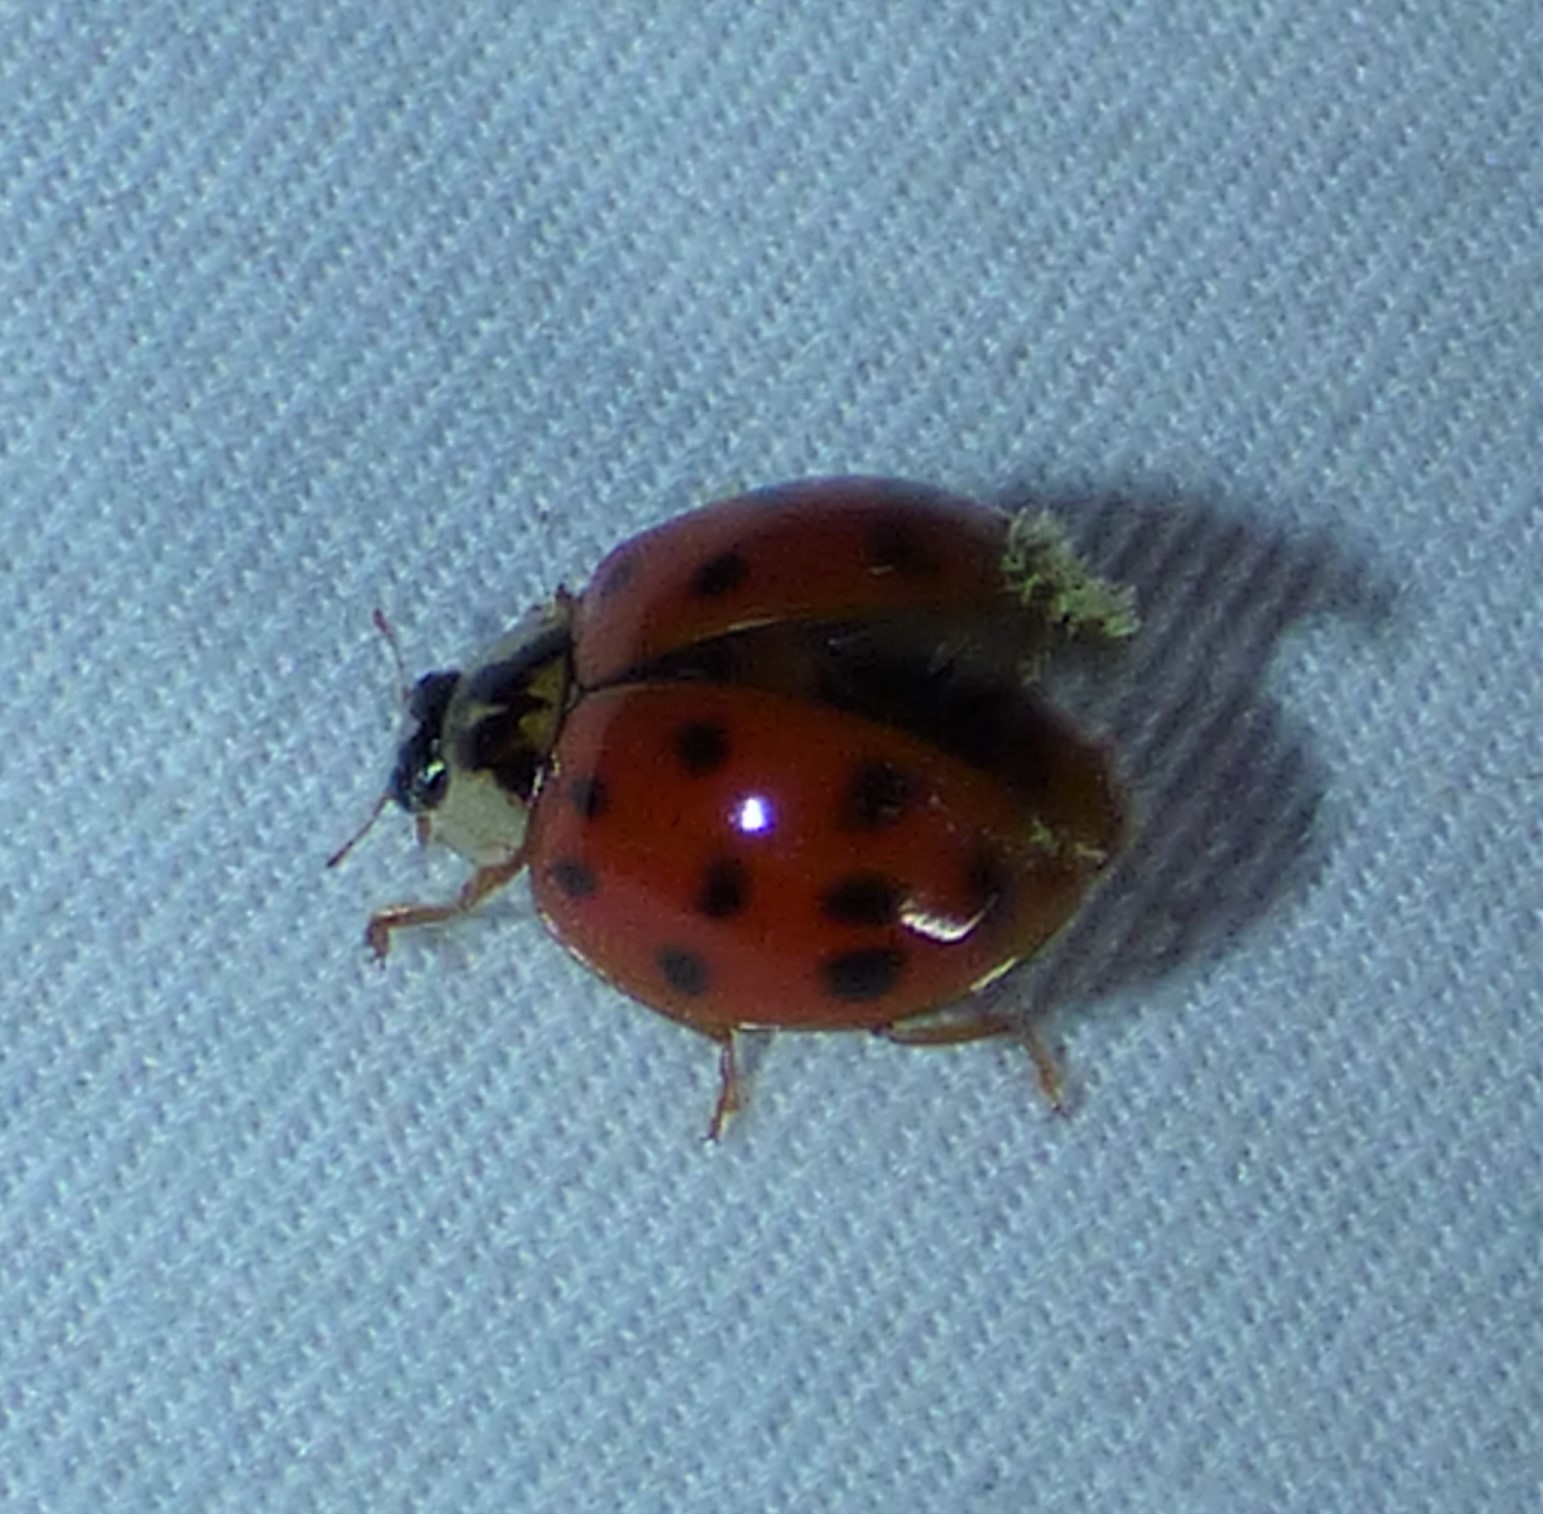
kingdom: Animalia
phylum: Arthropoda
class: Insecta
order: Coleoptera
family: Coccinellidae
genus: Harmonia
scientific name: Harmonia axyridis
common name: Harlequin ladybird
